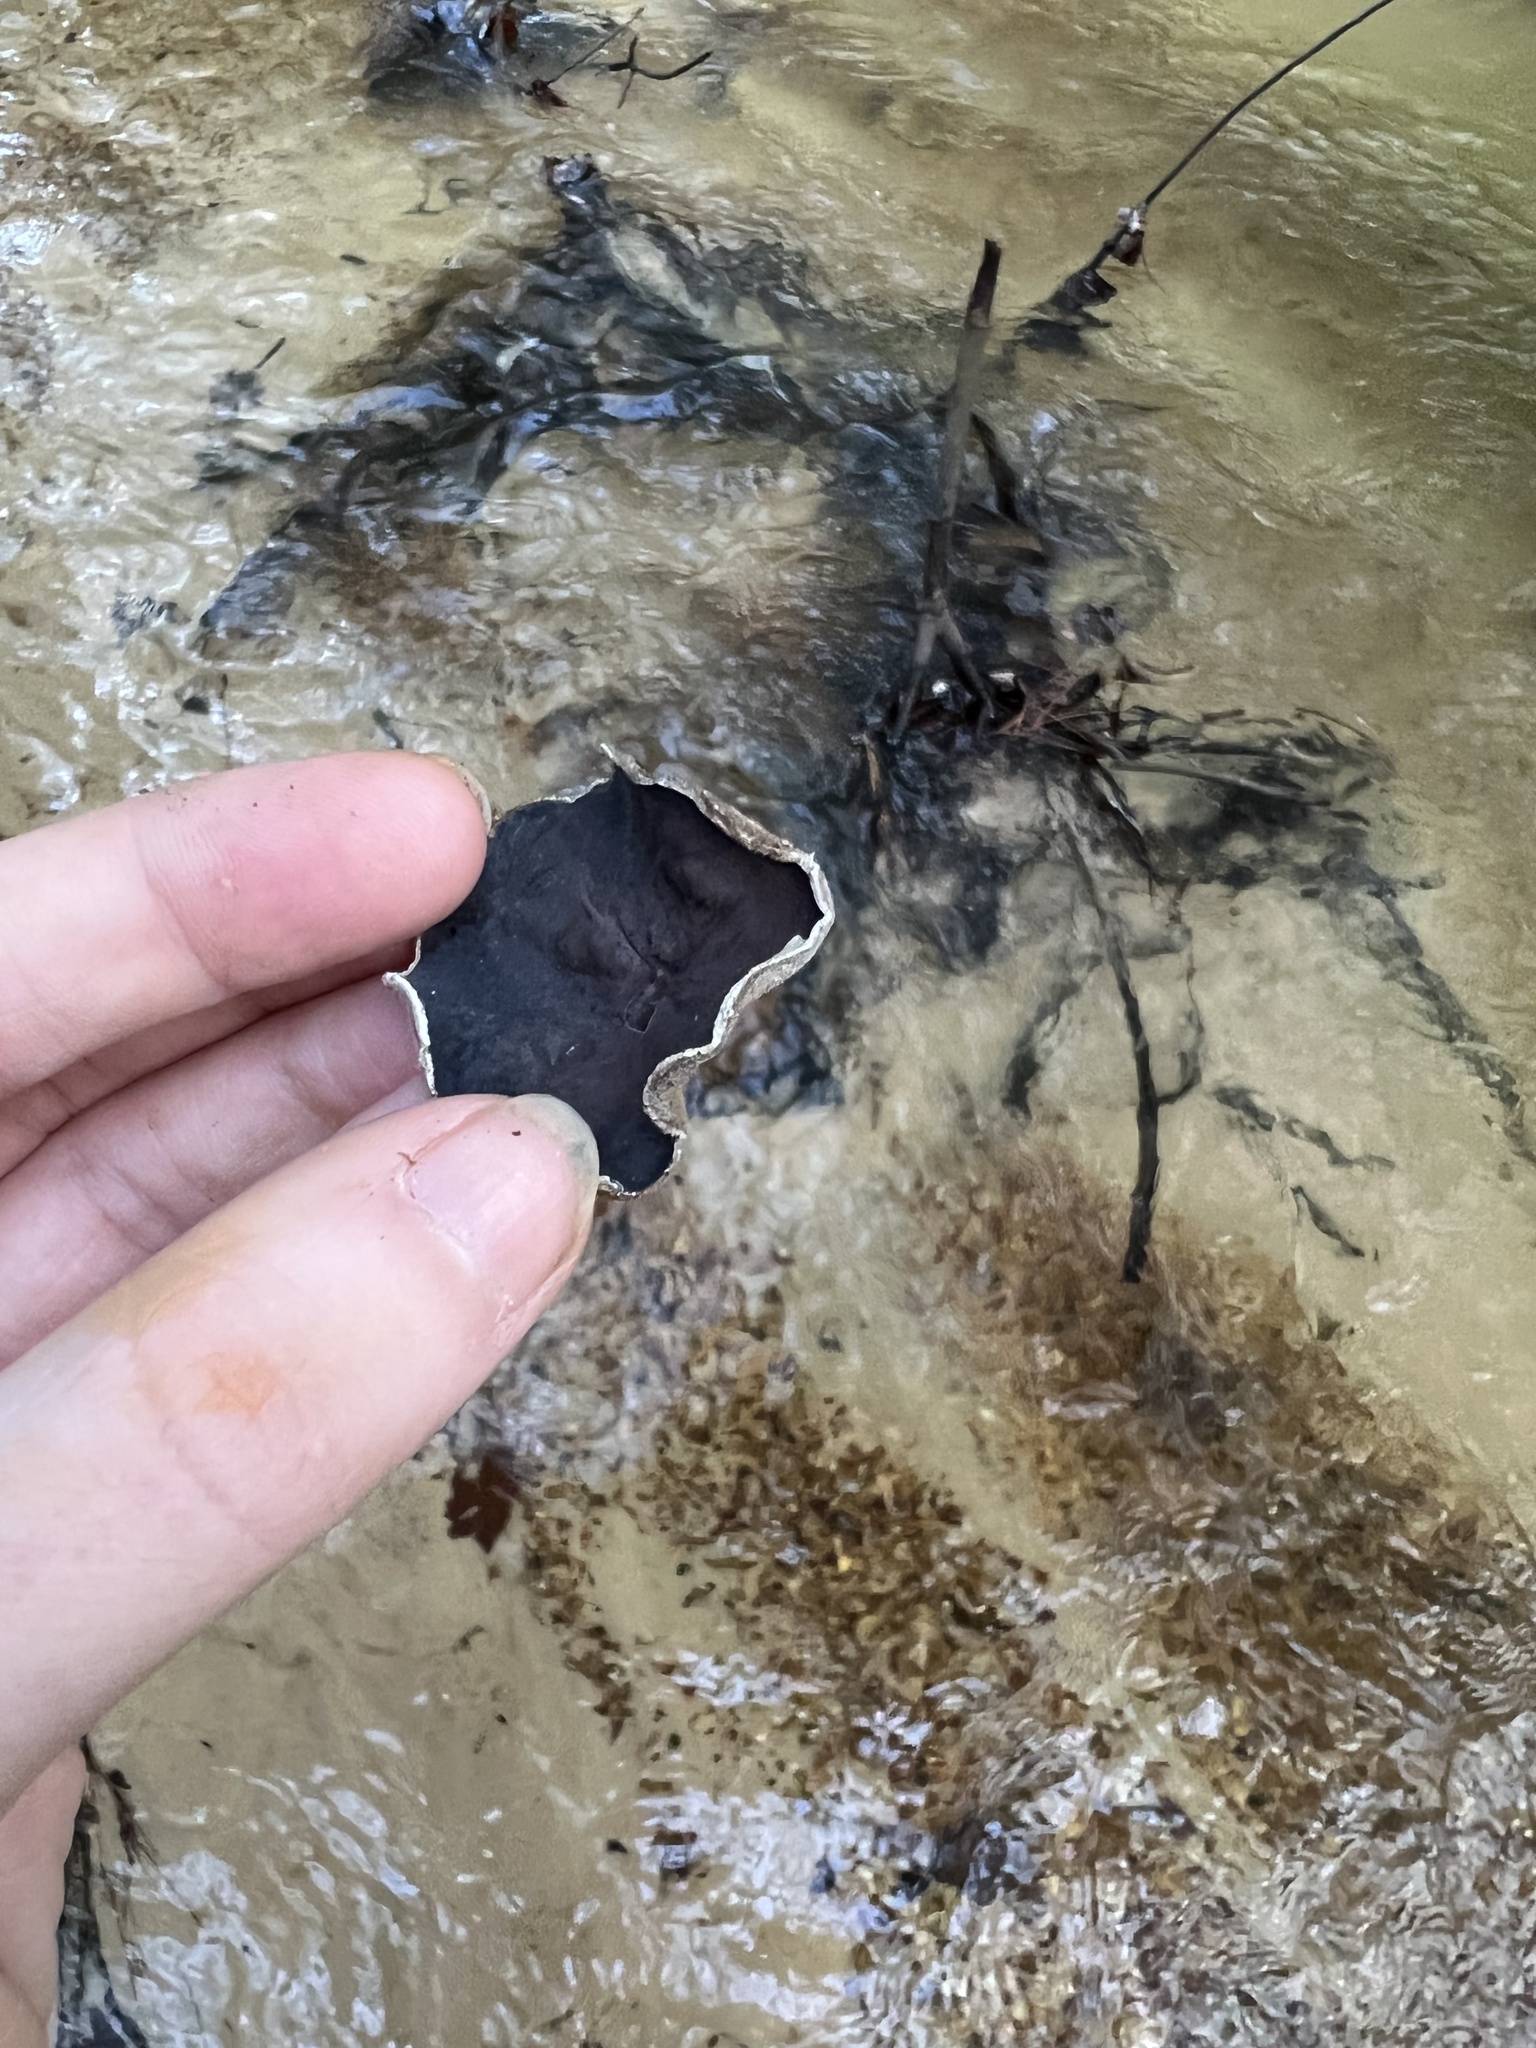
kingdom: Fungi
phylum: Basidiomycota
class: Agaricomycetes
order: Auriculariales
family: Auriculariaceae
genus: Auricularia
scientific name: Auricularia nigricans
